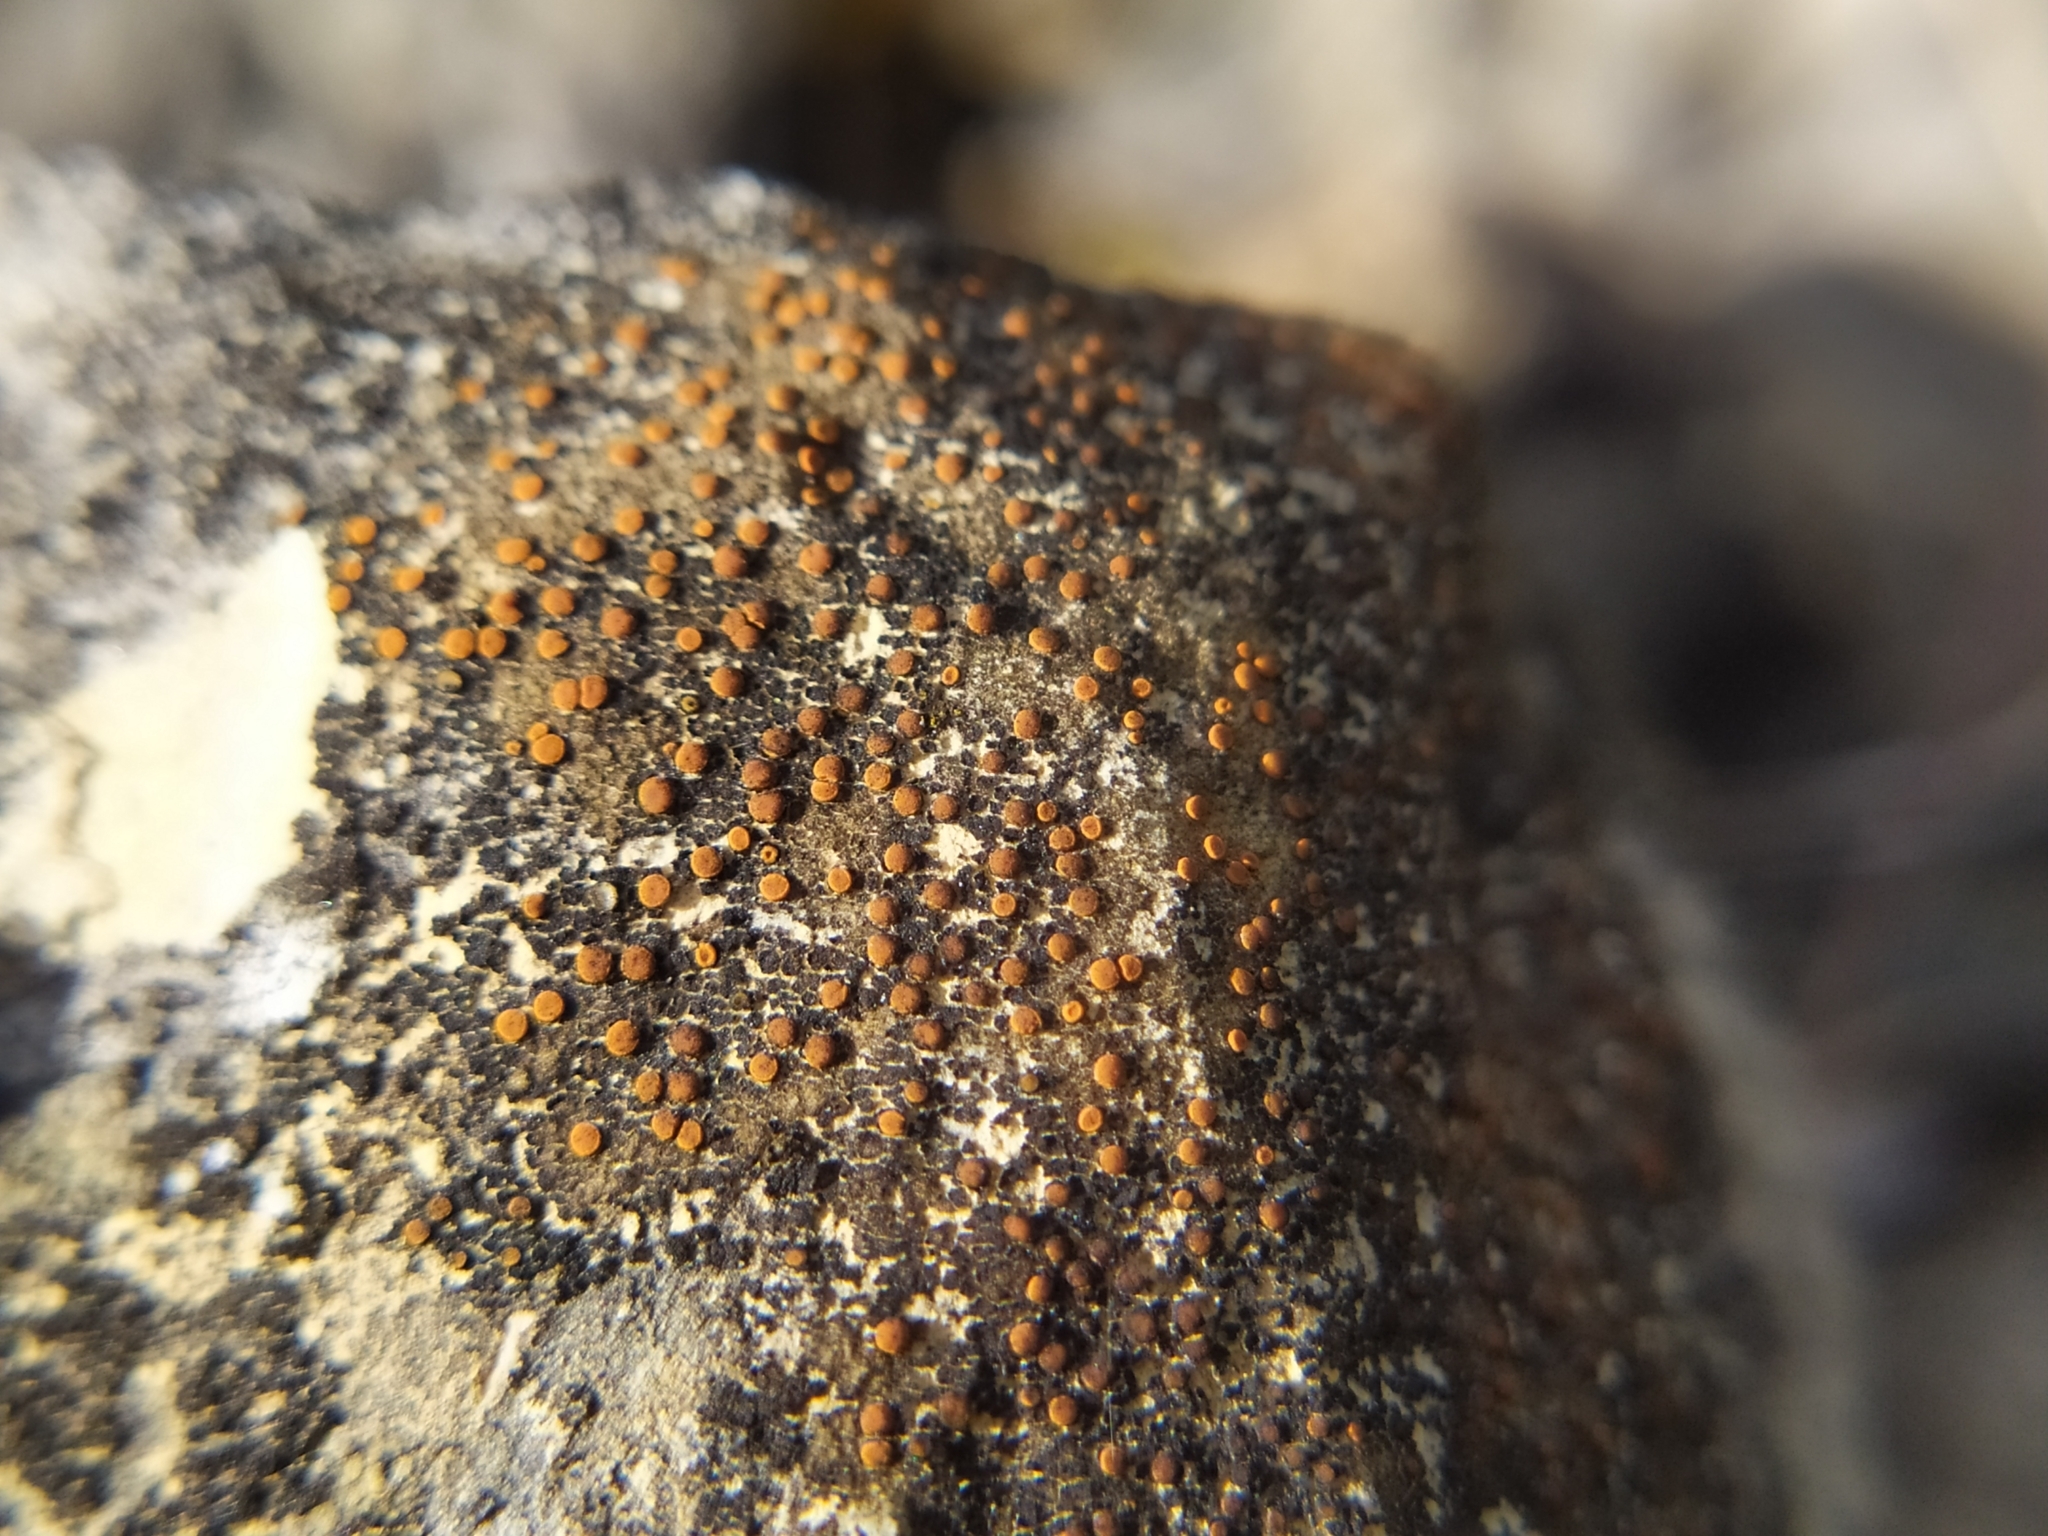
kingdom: Fungi
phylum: Ascomycota
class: Lecanoromycetes
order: Lecanorales
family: Psoraceae
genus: Protoblastenia
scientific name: Protoblastenia rupestris
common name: Chewing gum lichen
